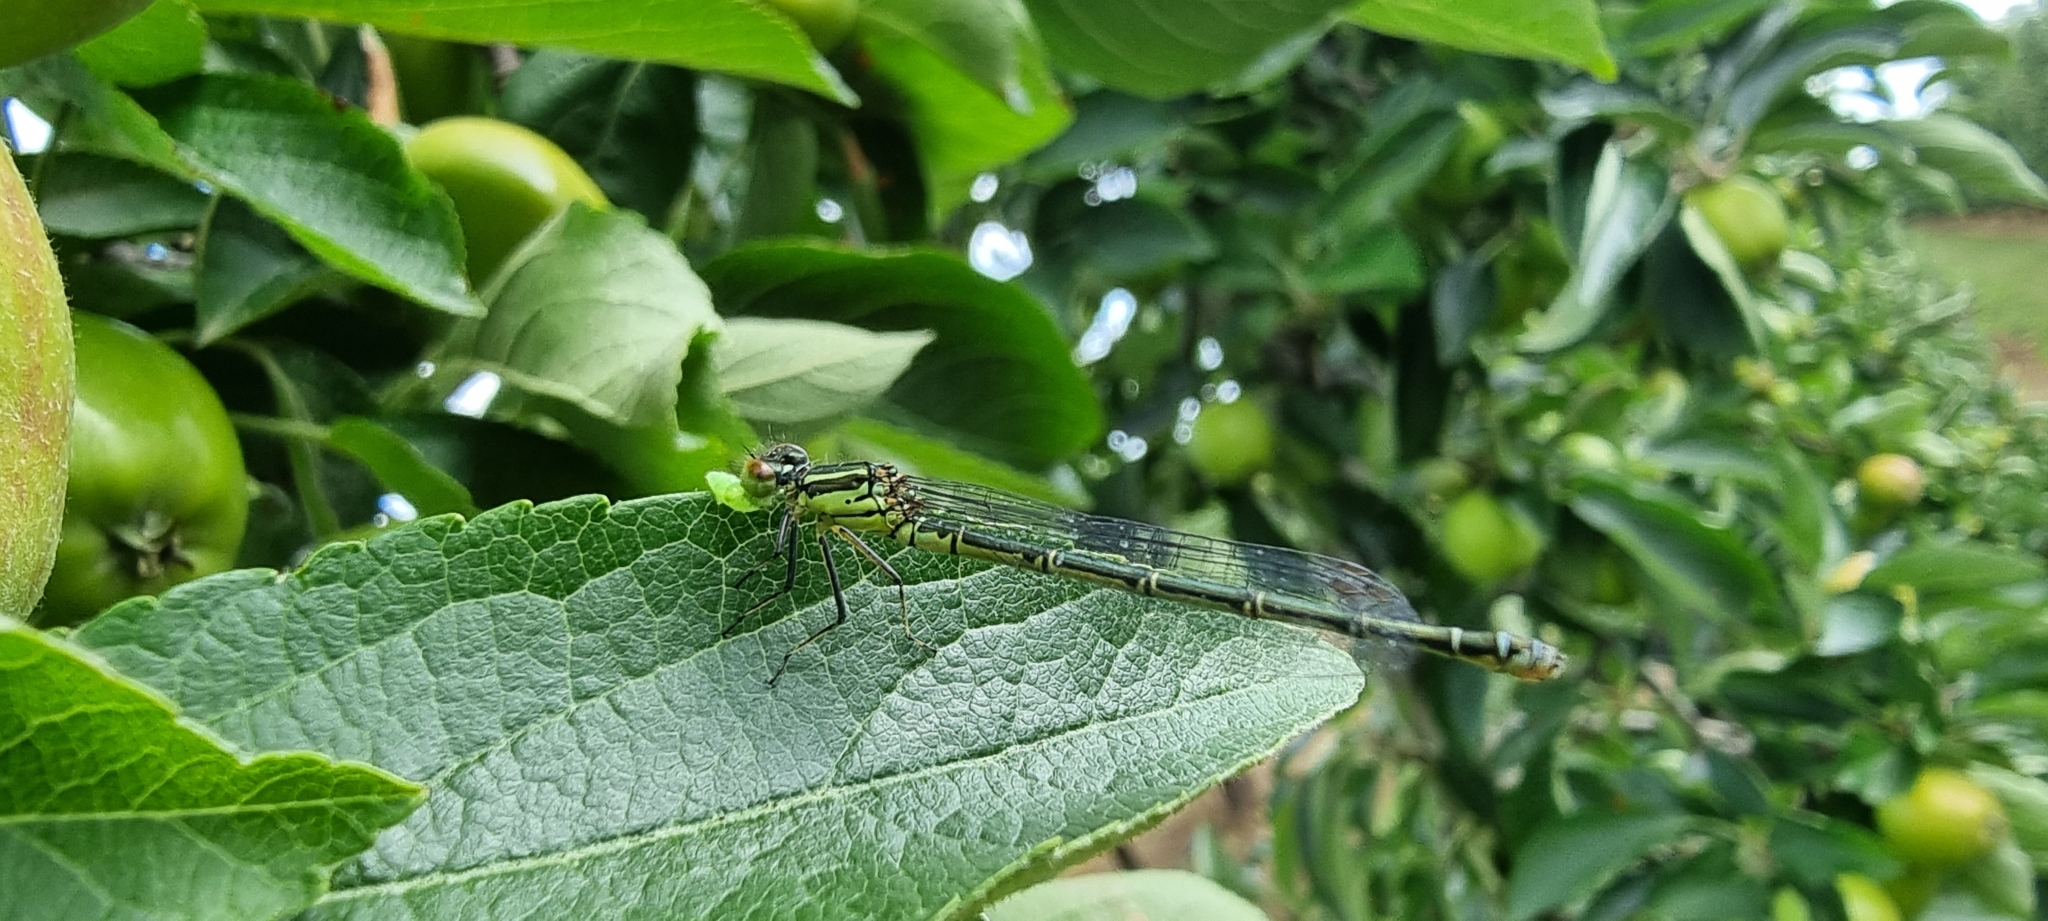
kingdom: Animalia
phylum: Arthropoda
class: Insecta
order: Odonata
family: Coenagrionidae
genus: Erythromma
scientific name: Erythromma viridulum
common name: Small red-eyed damselfly
